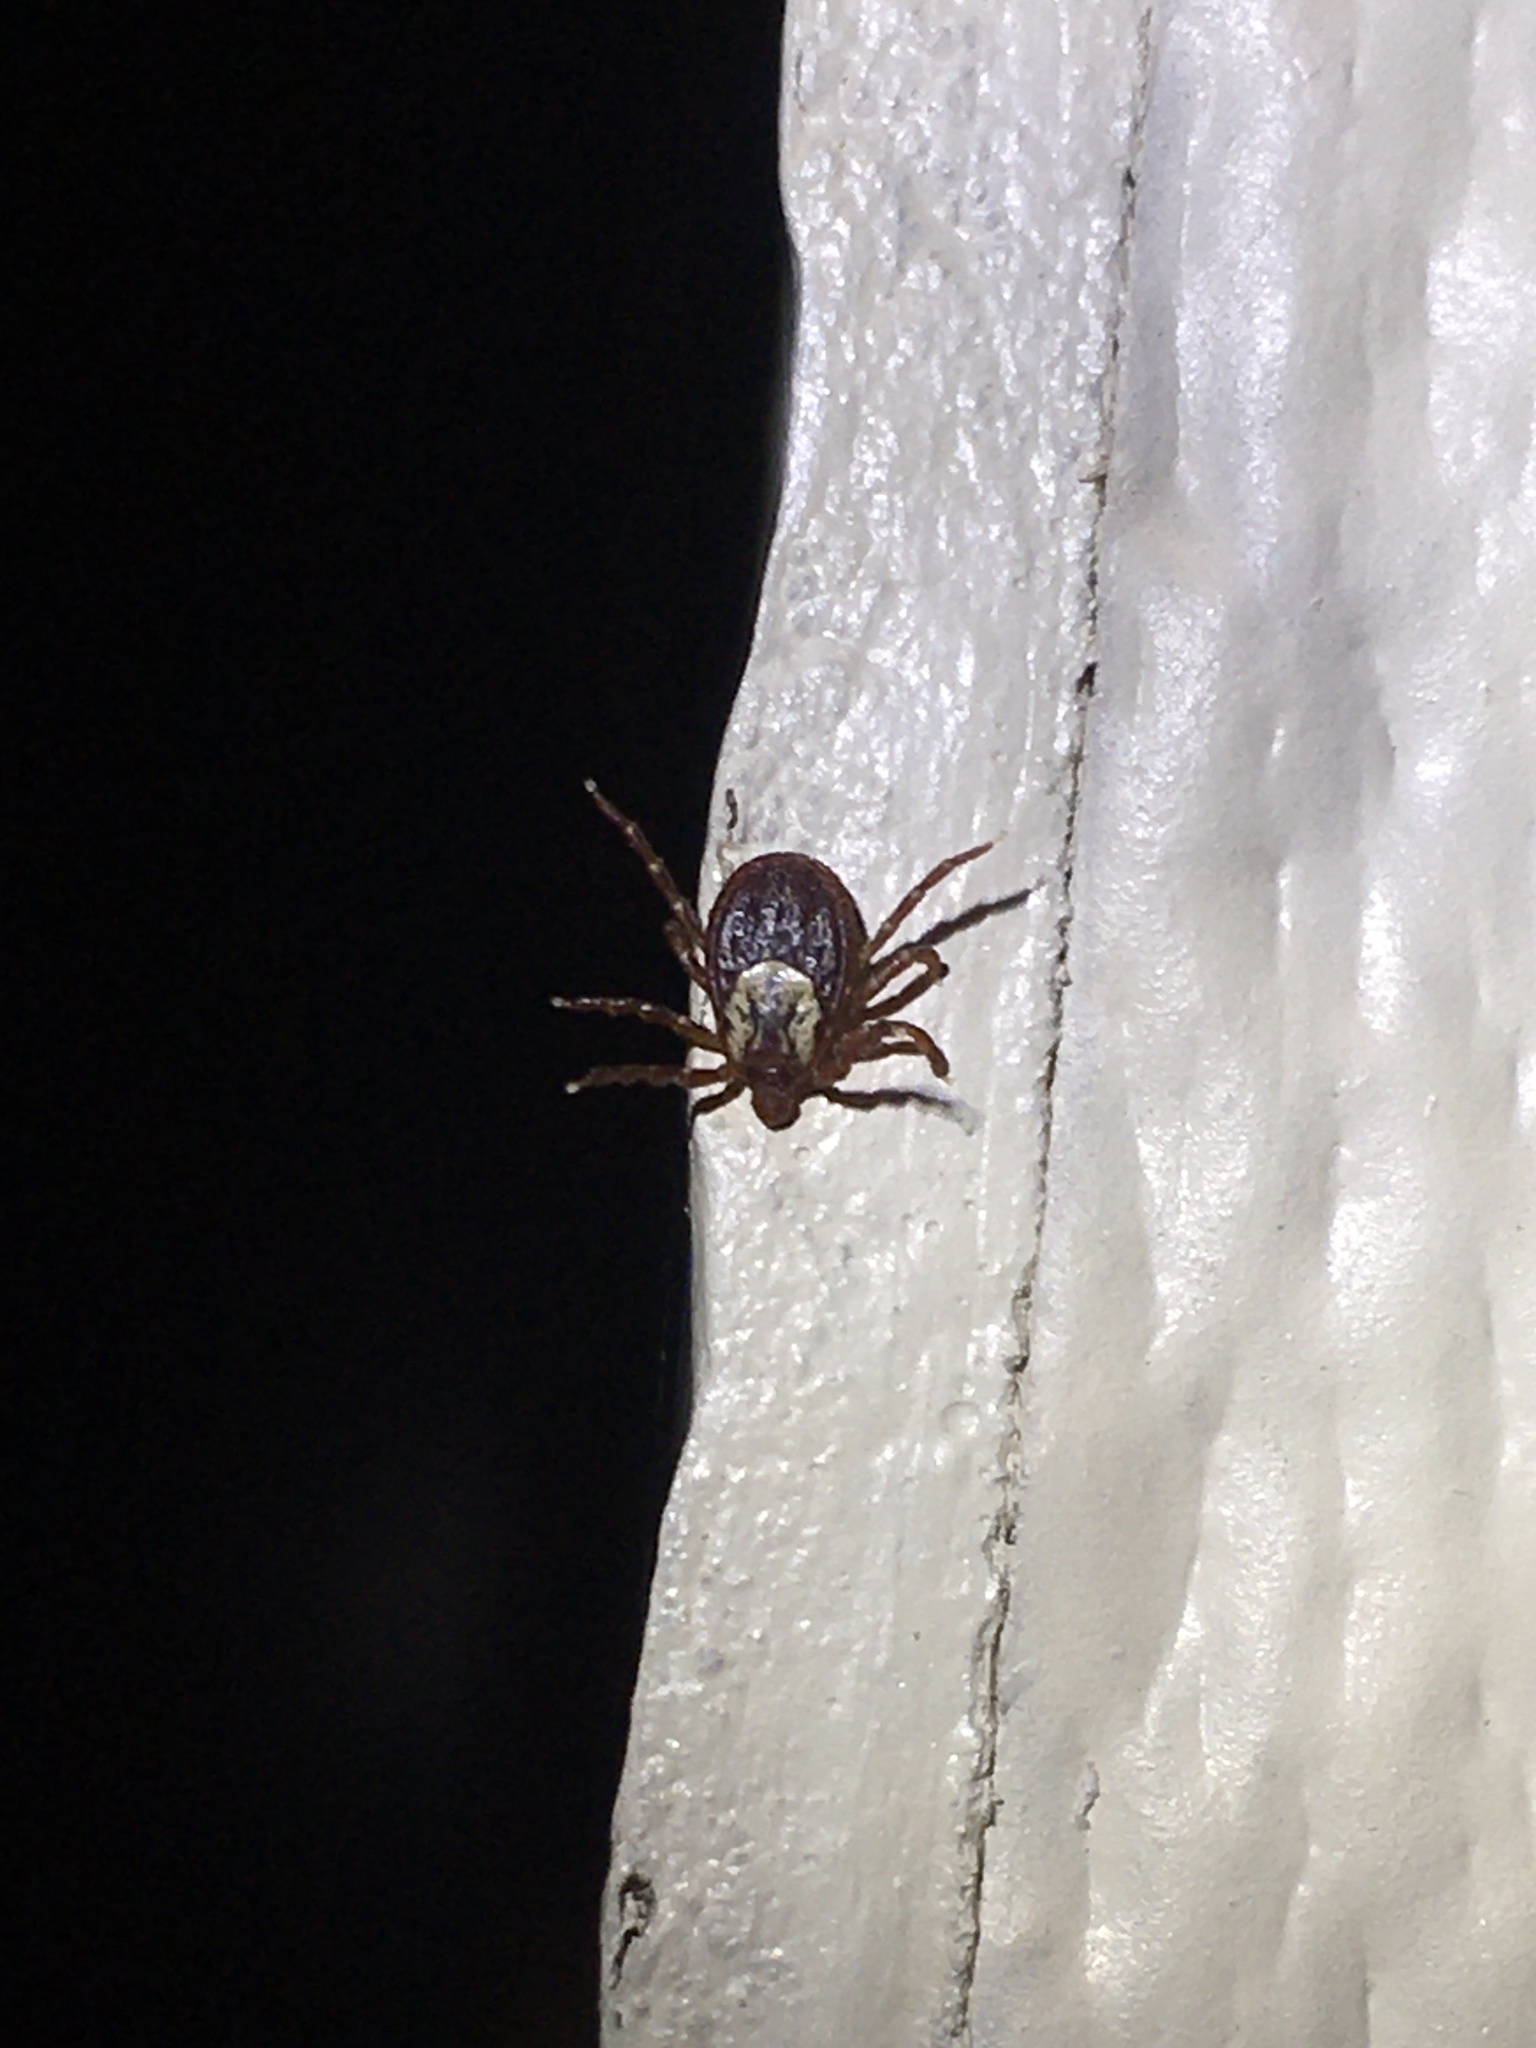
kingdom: Animalia
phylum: Arthropoda
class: Arachnida
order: Ixodida
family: Ixodidae
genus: Dermacentor
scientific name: Dermacentor variabilis
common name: American dog tick
